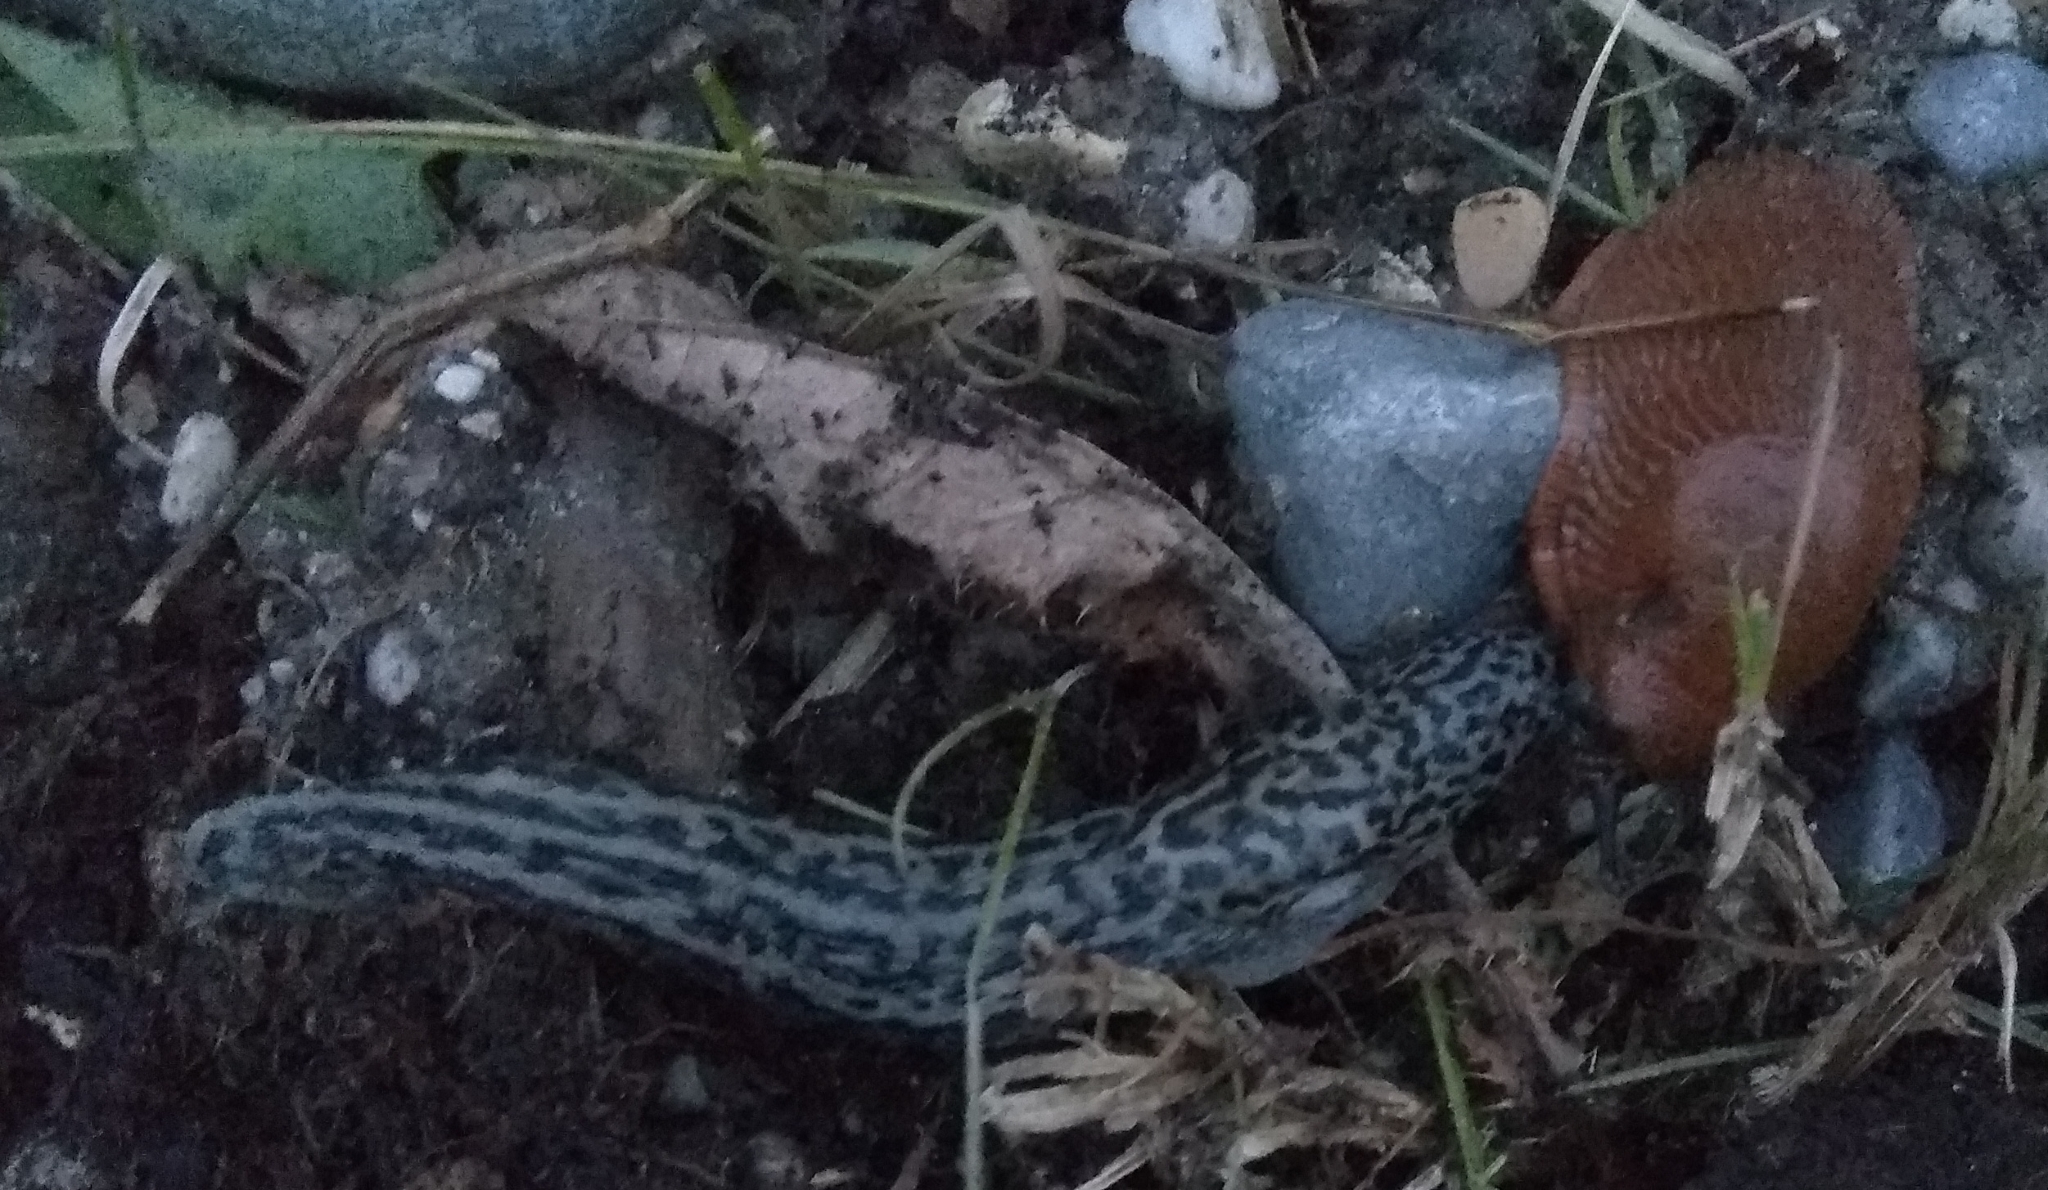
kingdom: Animalia
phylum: Mollusca
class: Gastropoda
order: Stylommatophora
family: Limacidae
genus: Limax
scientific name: Limax maximus
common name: Great grey slug
